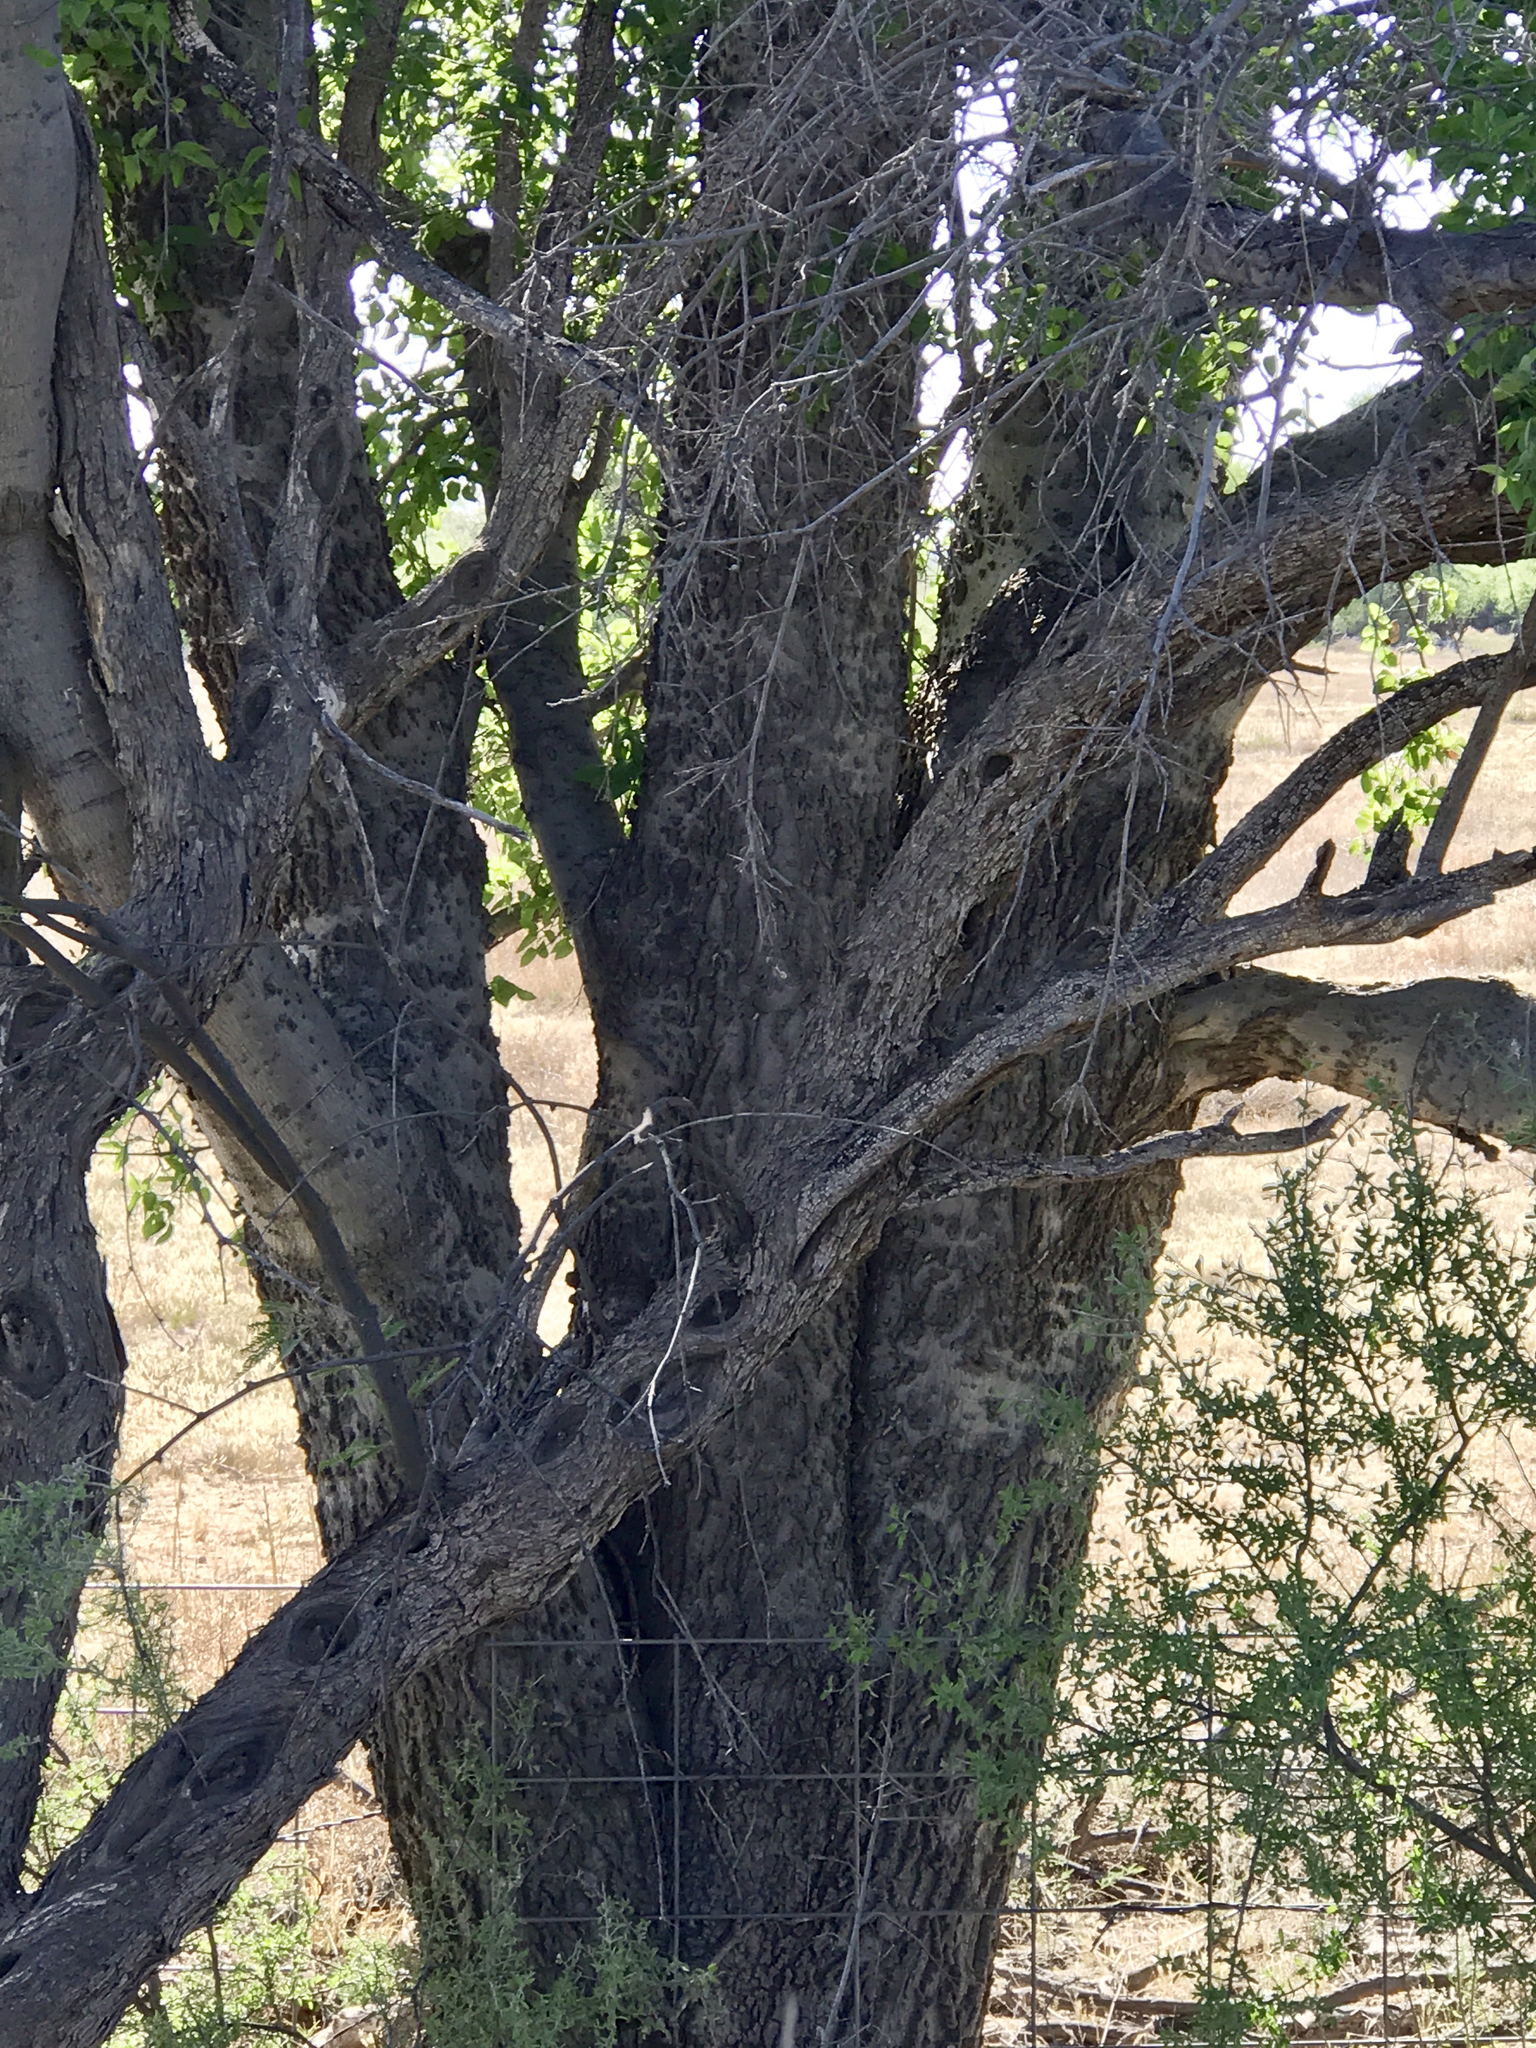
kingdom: Plantae
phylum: Tracheophyta
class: Magnoliopsida
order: Rosales
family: Cannabaceae
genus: Celtis
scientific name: Celtis reticulata
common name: Netleaf hackberry
